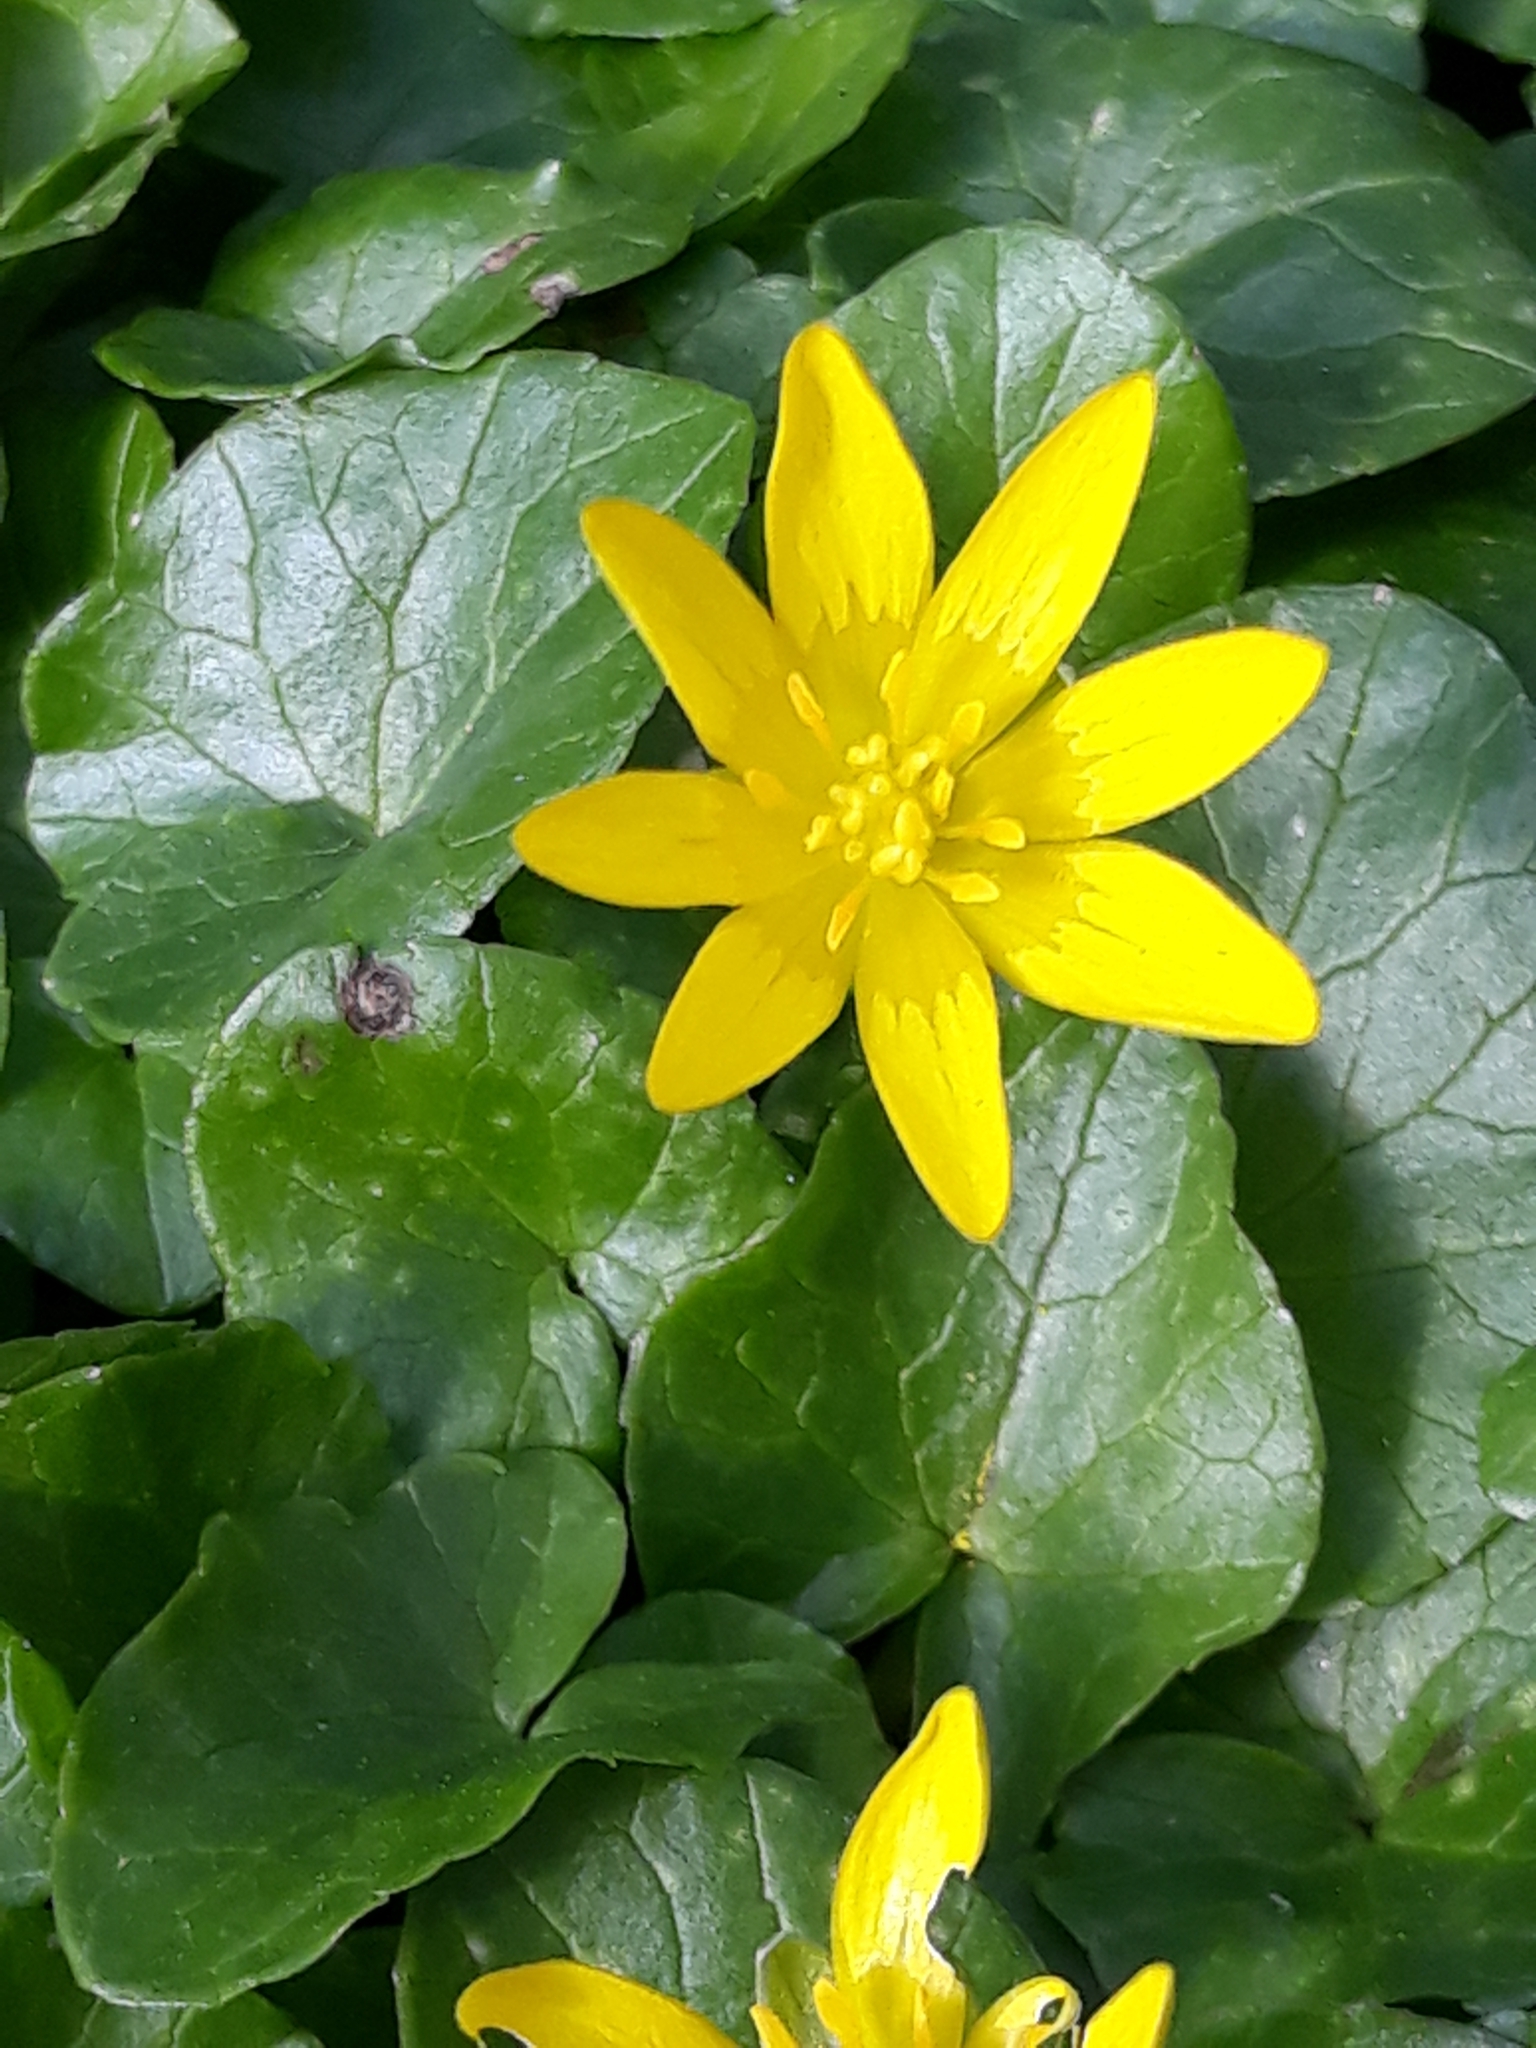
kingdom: Plantae
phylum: Tracheophyta
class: Magnoliopsida
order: Ranunculales
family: Ranunculaceae
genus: Ficaria
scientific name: Ficaria verna
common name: Lesser celandine
